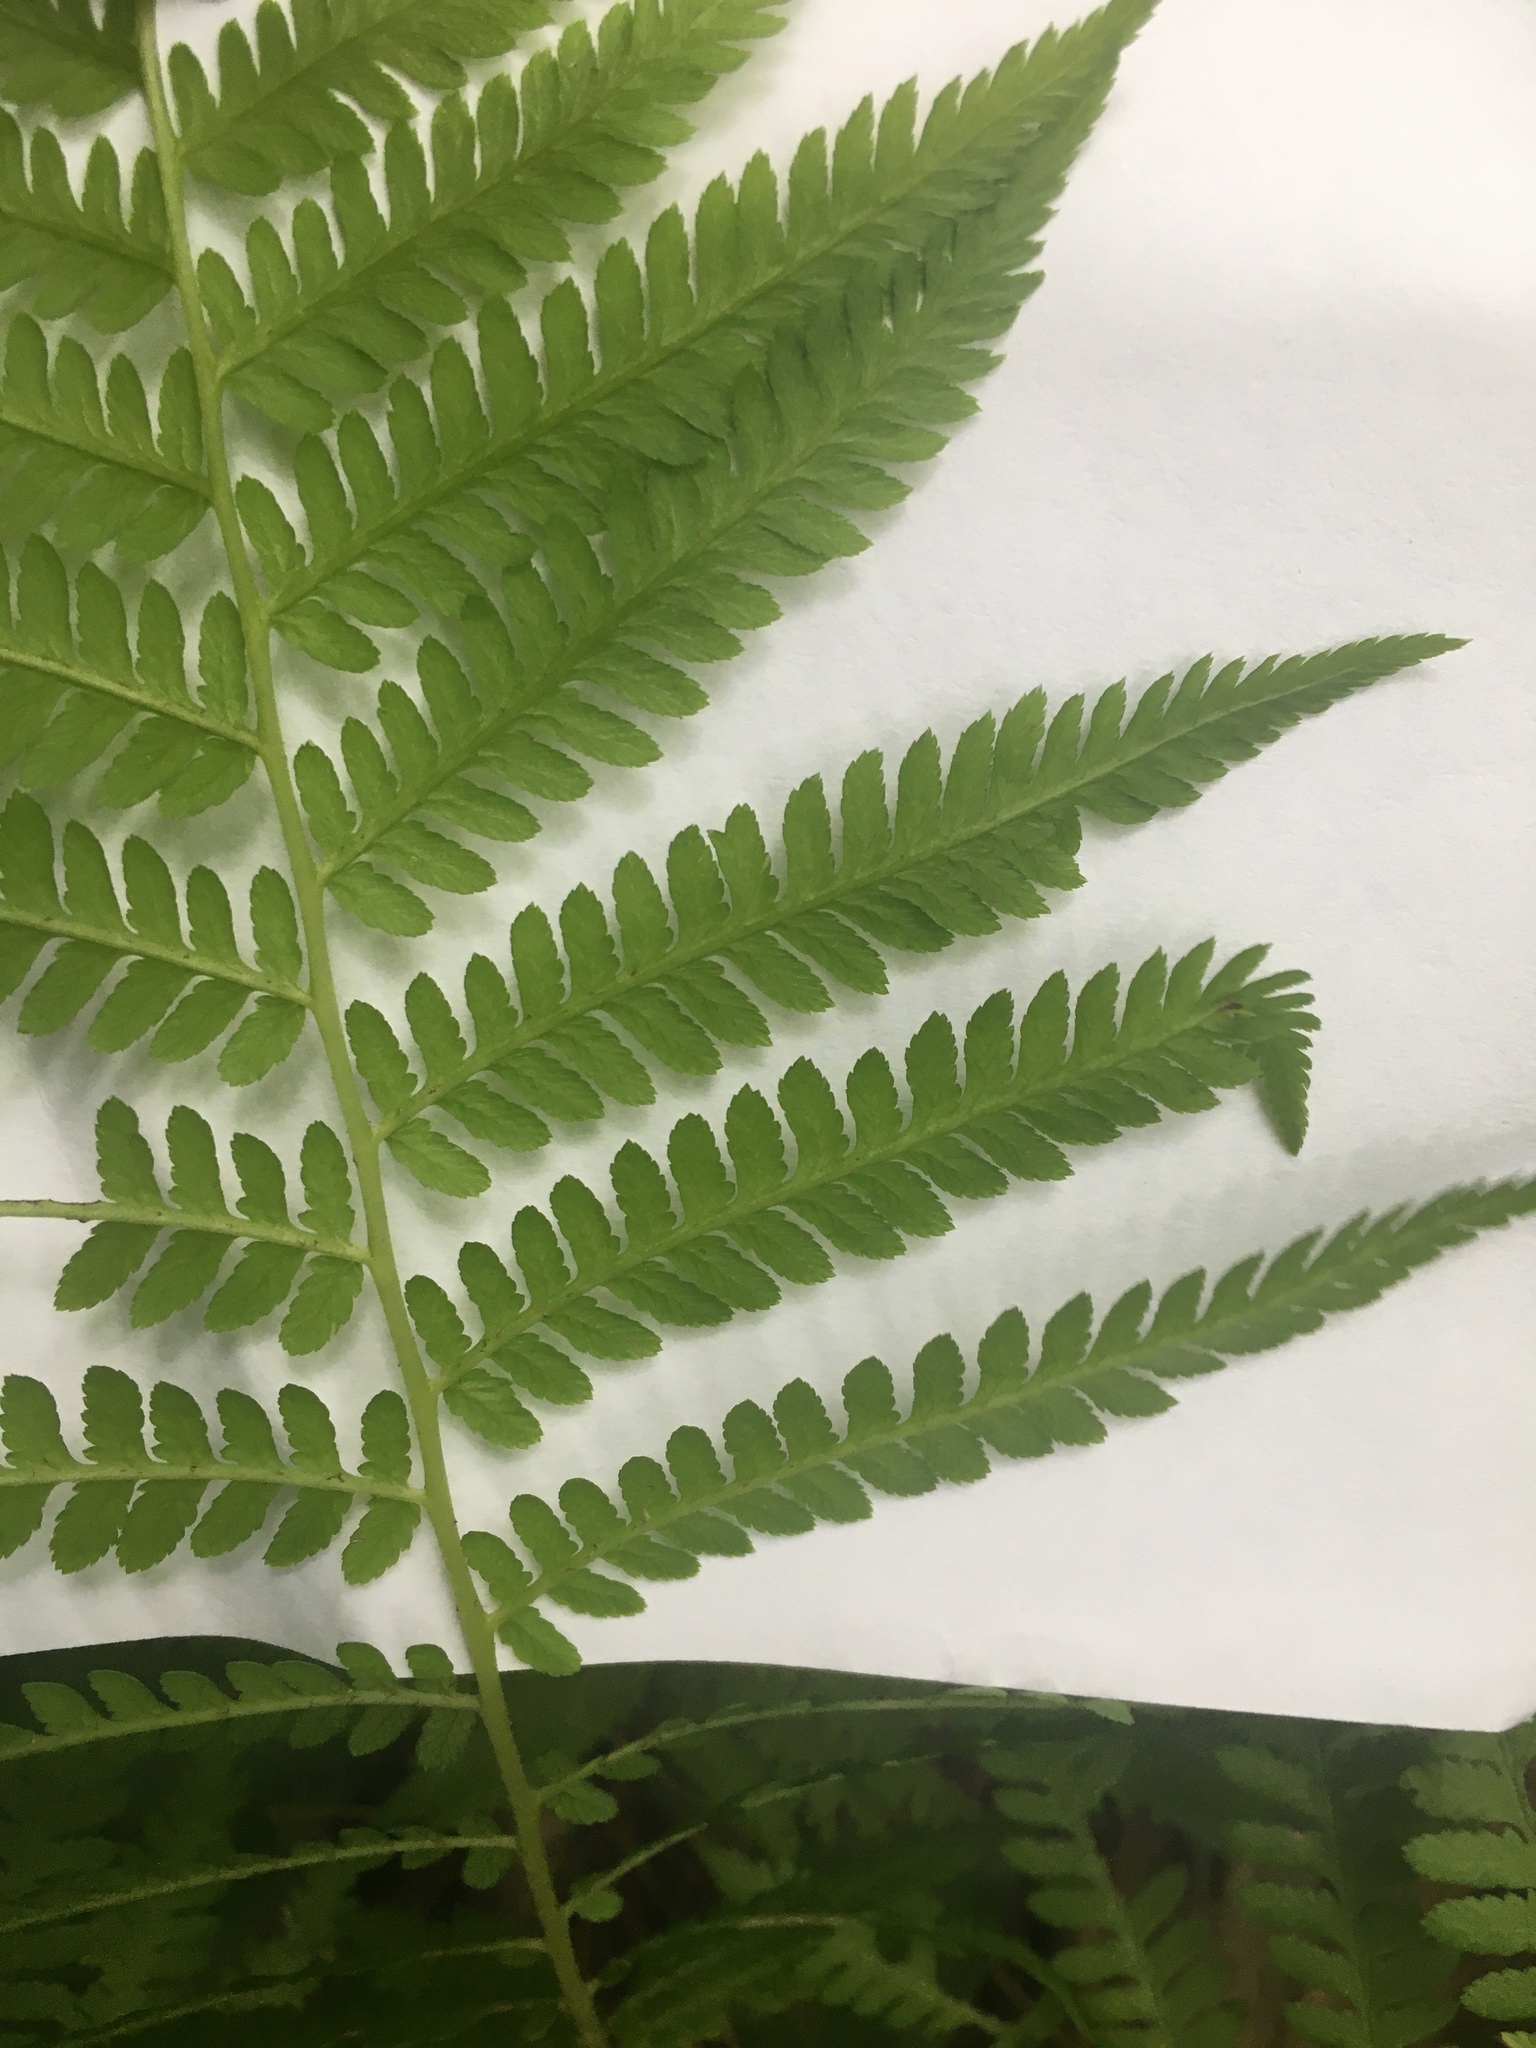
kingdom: Plantae
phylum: Tracheophyta
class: Polypodiopsida
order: Polypodiales
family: Athyriaceae
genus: Athyrium
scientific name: Athyrium angustum
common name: Northern lady fern
